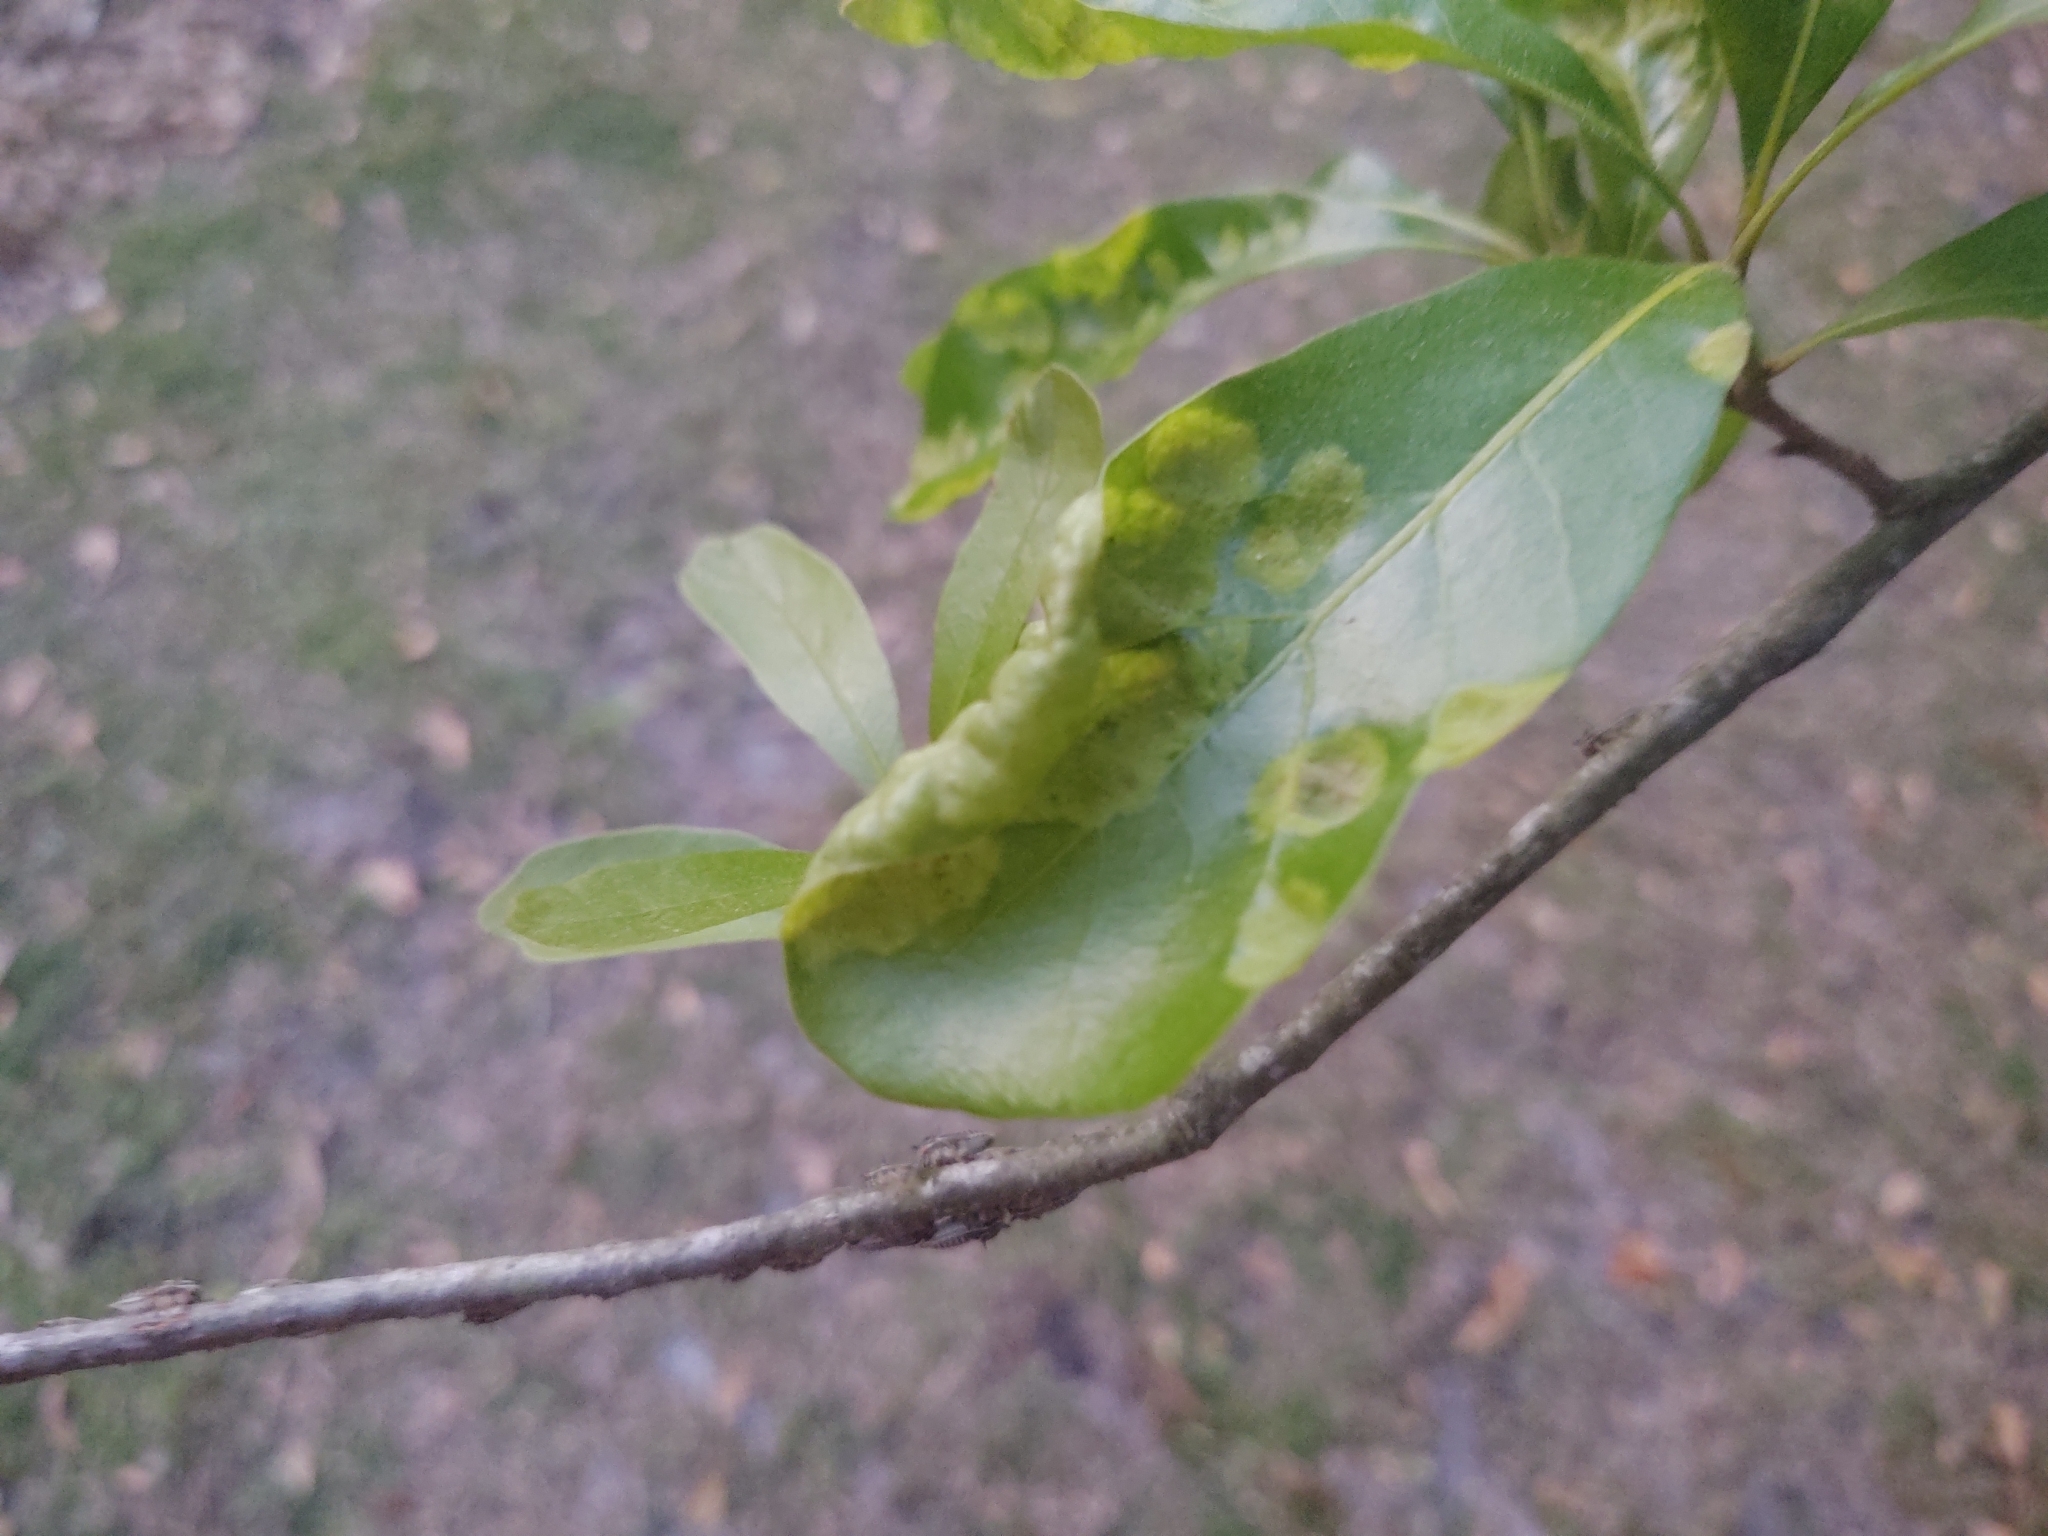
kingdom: Animalia
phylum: Arthropoda
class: Insecta
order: Hemiptera
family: Membracidae
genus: Platycotis
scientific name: Platycotis vittatus
